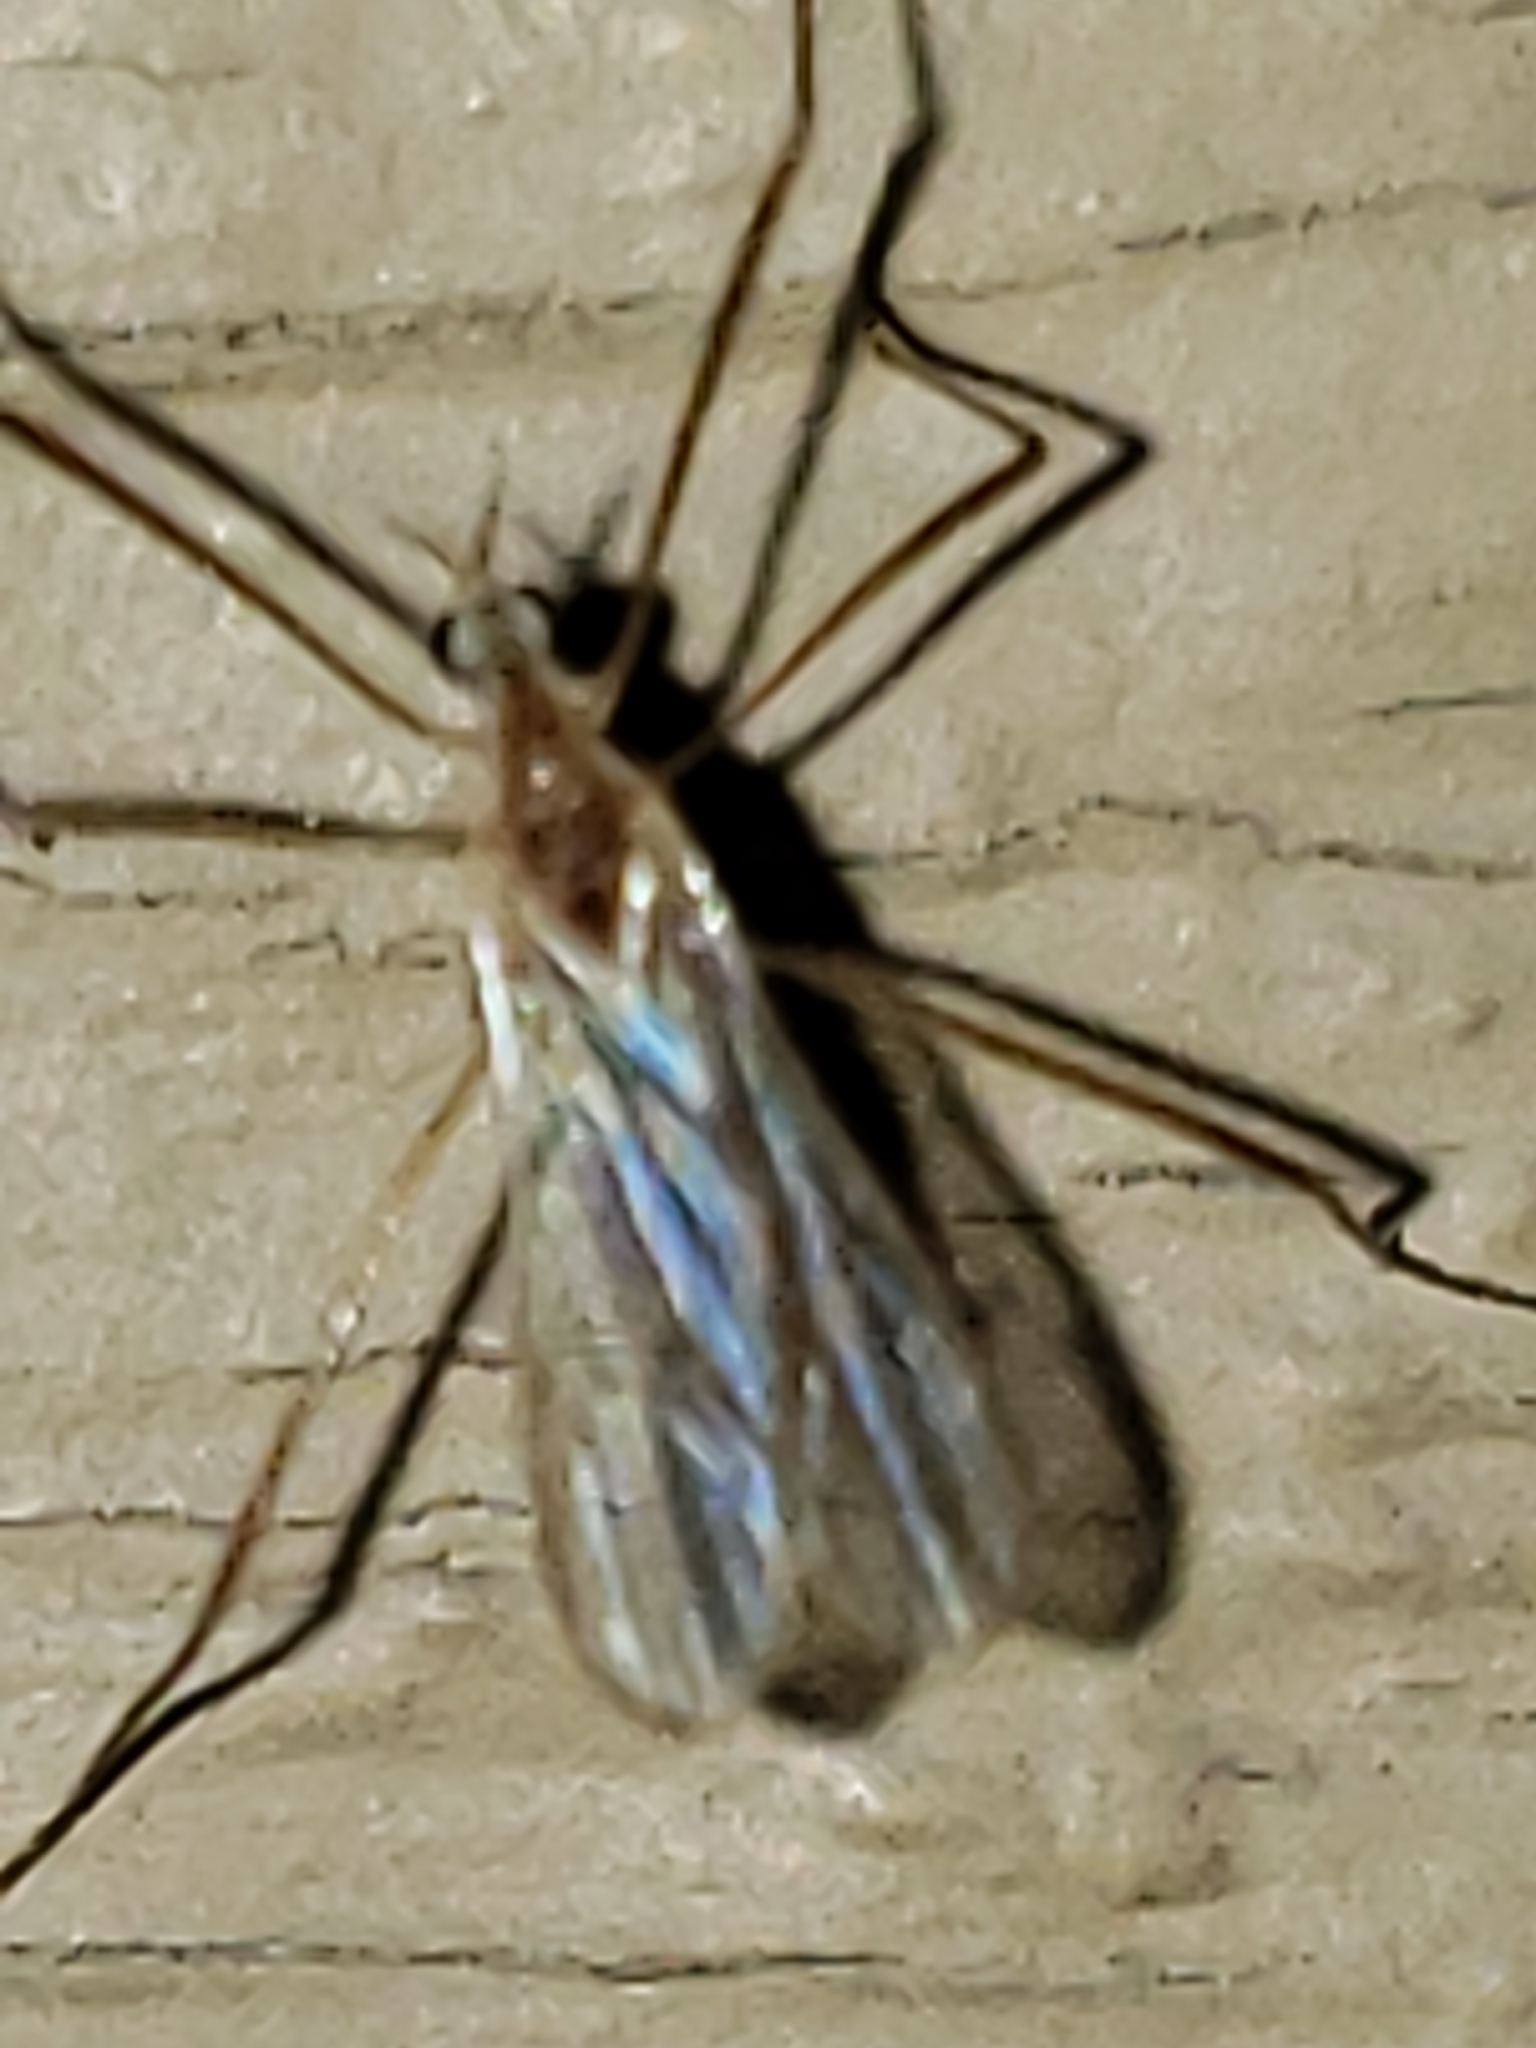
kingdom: Animalia
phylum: Arthropoda
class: Insecta
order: Diptera
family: Limoniidae
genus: Erioptera
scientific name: Erioptera septemtrionis
